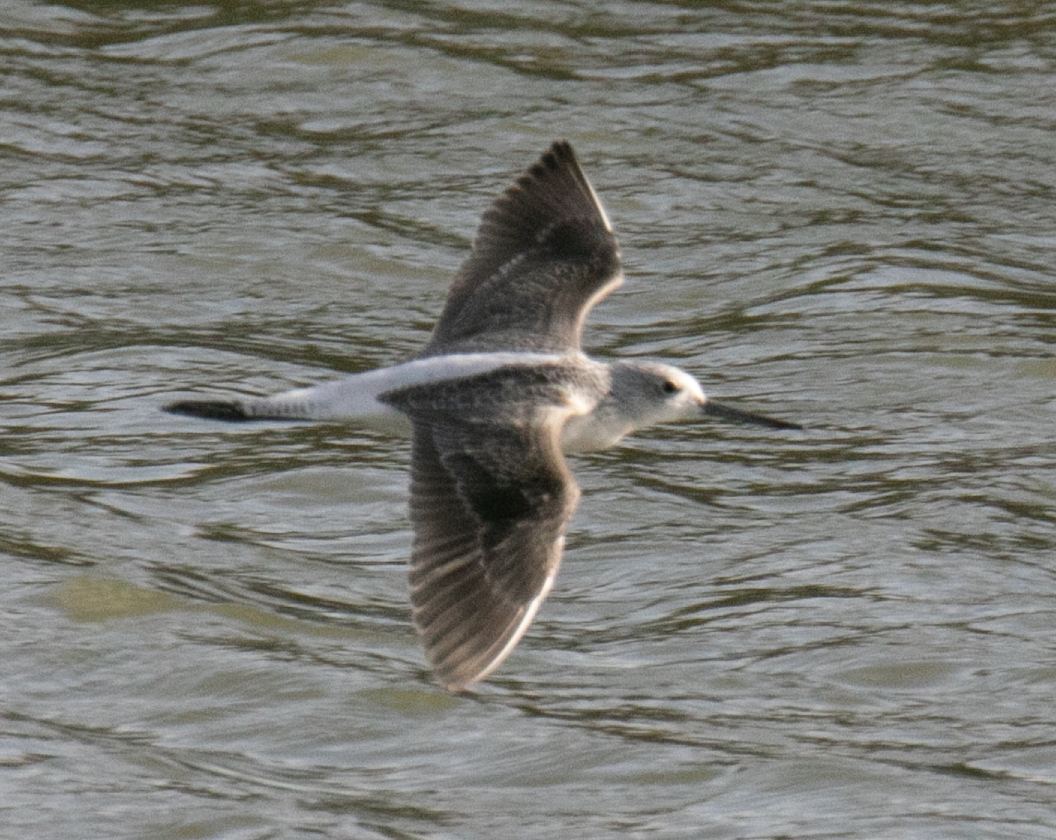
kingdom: Animalia
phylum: Chordata
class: Aves
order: Charadriiformes
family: Scolopacidae
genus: Tringa
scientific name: Tringa nebularia
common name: Common greenshank
